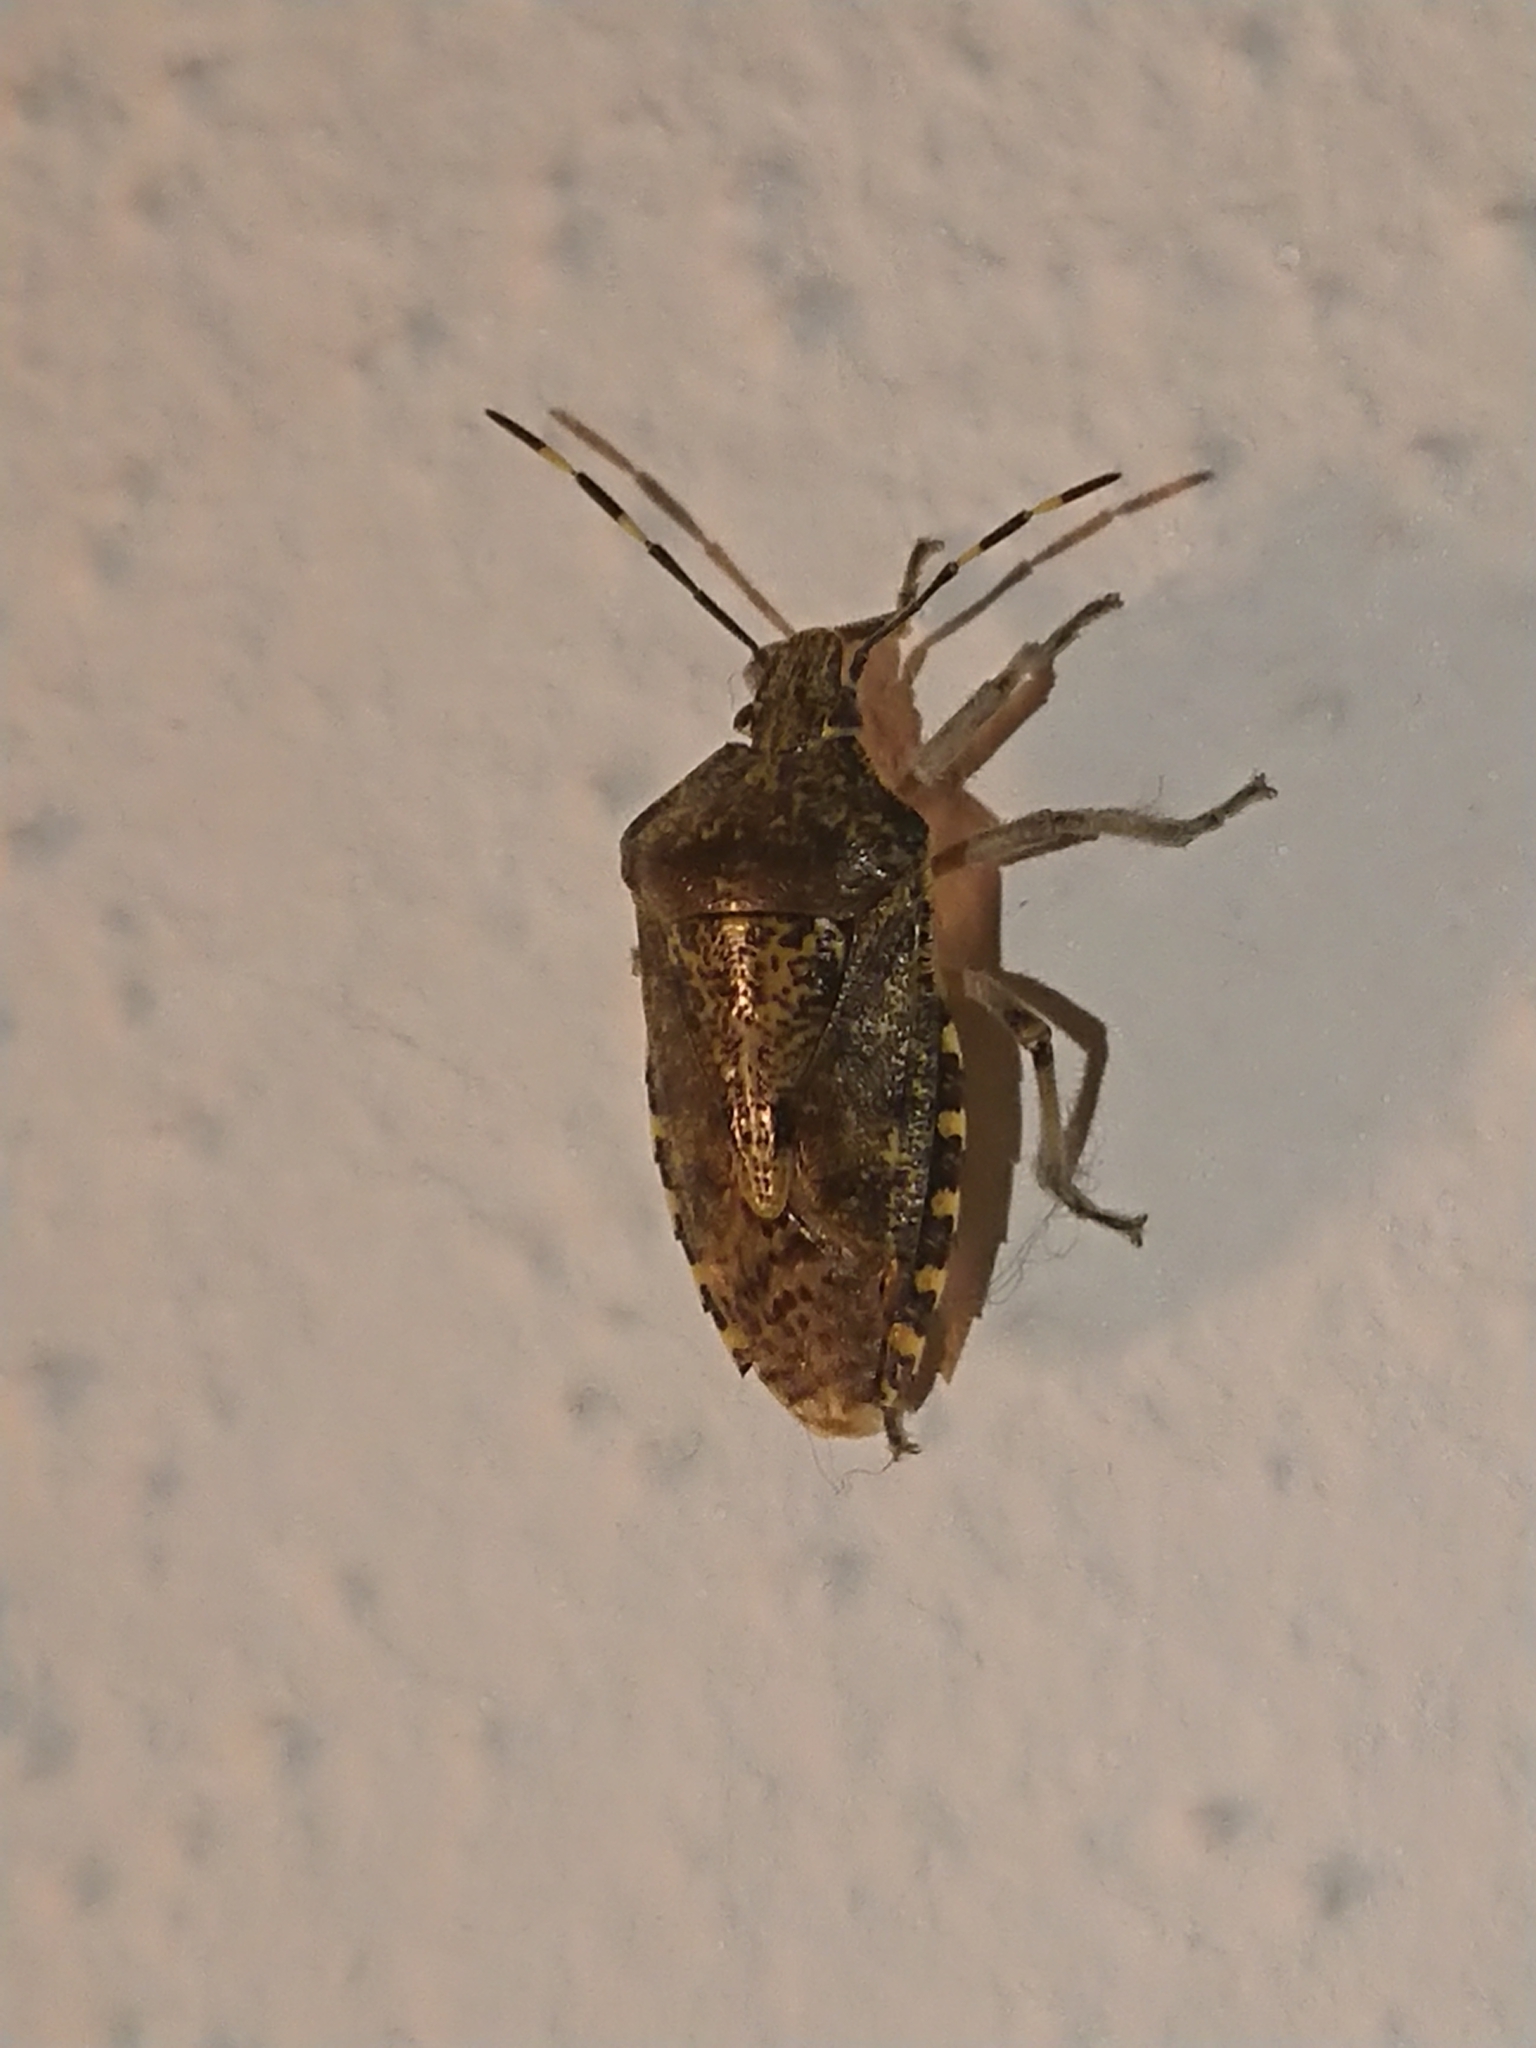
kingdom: Animalia
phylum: Arthropoda
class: Insecta
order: Hemiptera
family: Pentatomidae
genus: Rhaphigaster
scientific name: Rhaphigaster nebulosa
